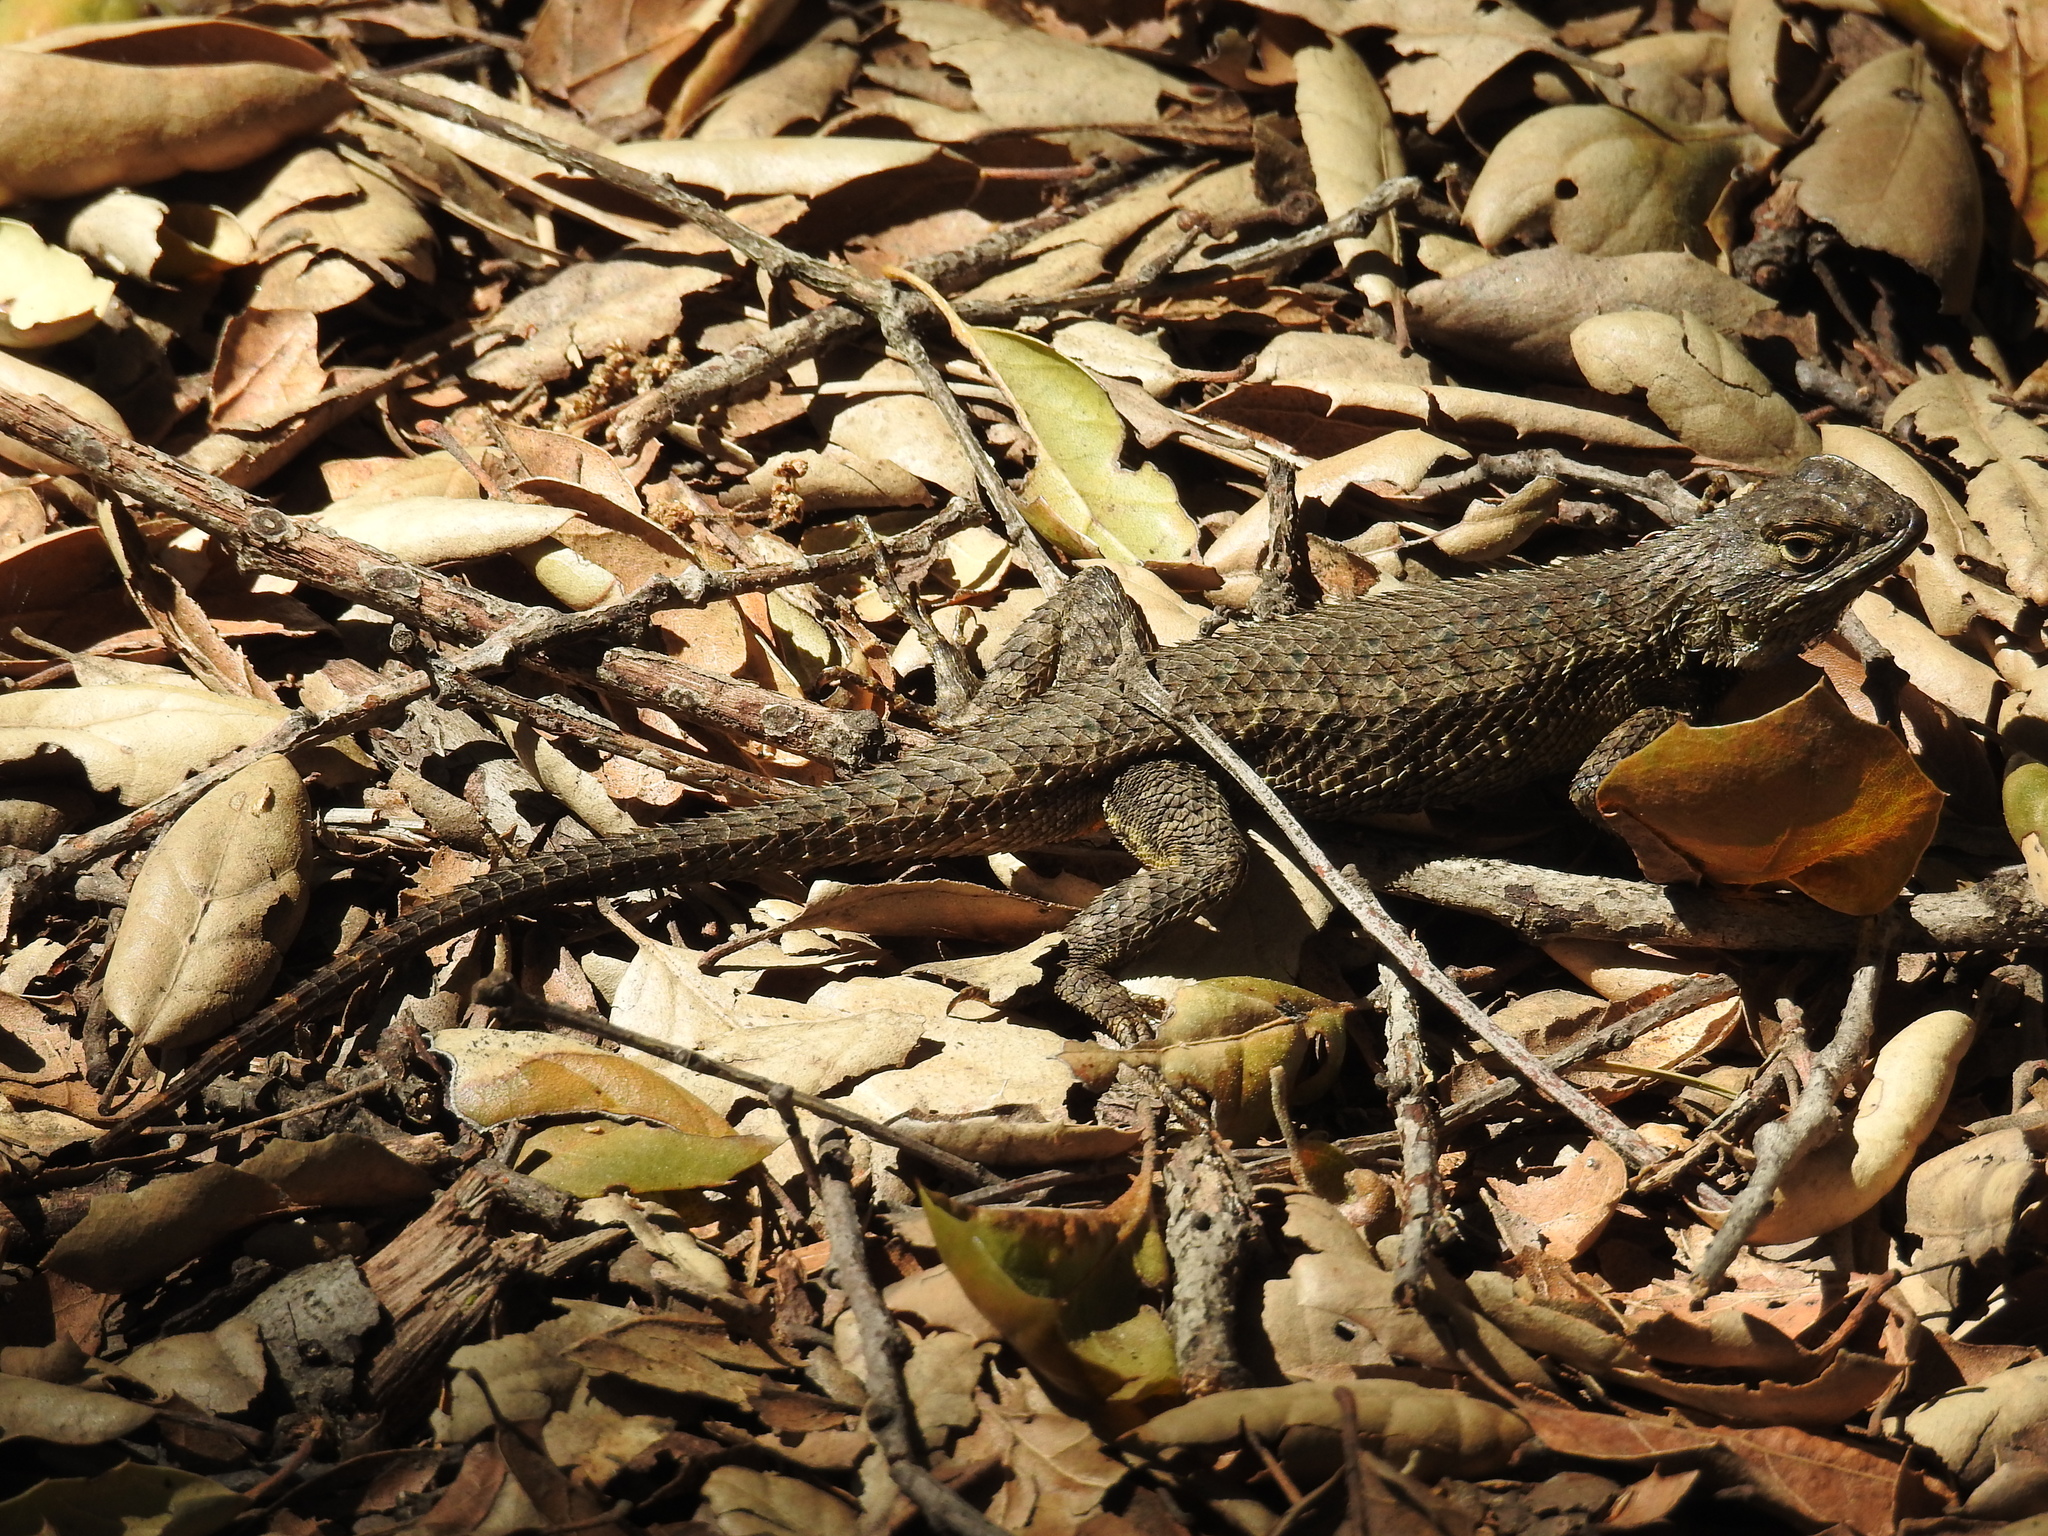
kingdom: Animalia
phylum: Chordata
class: Squamata
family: Phrynosomatidae
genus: Sceloporus
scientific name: Sceloporus occidentalis
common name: Western fence lizard
